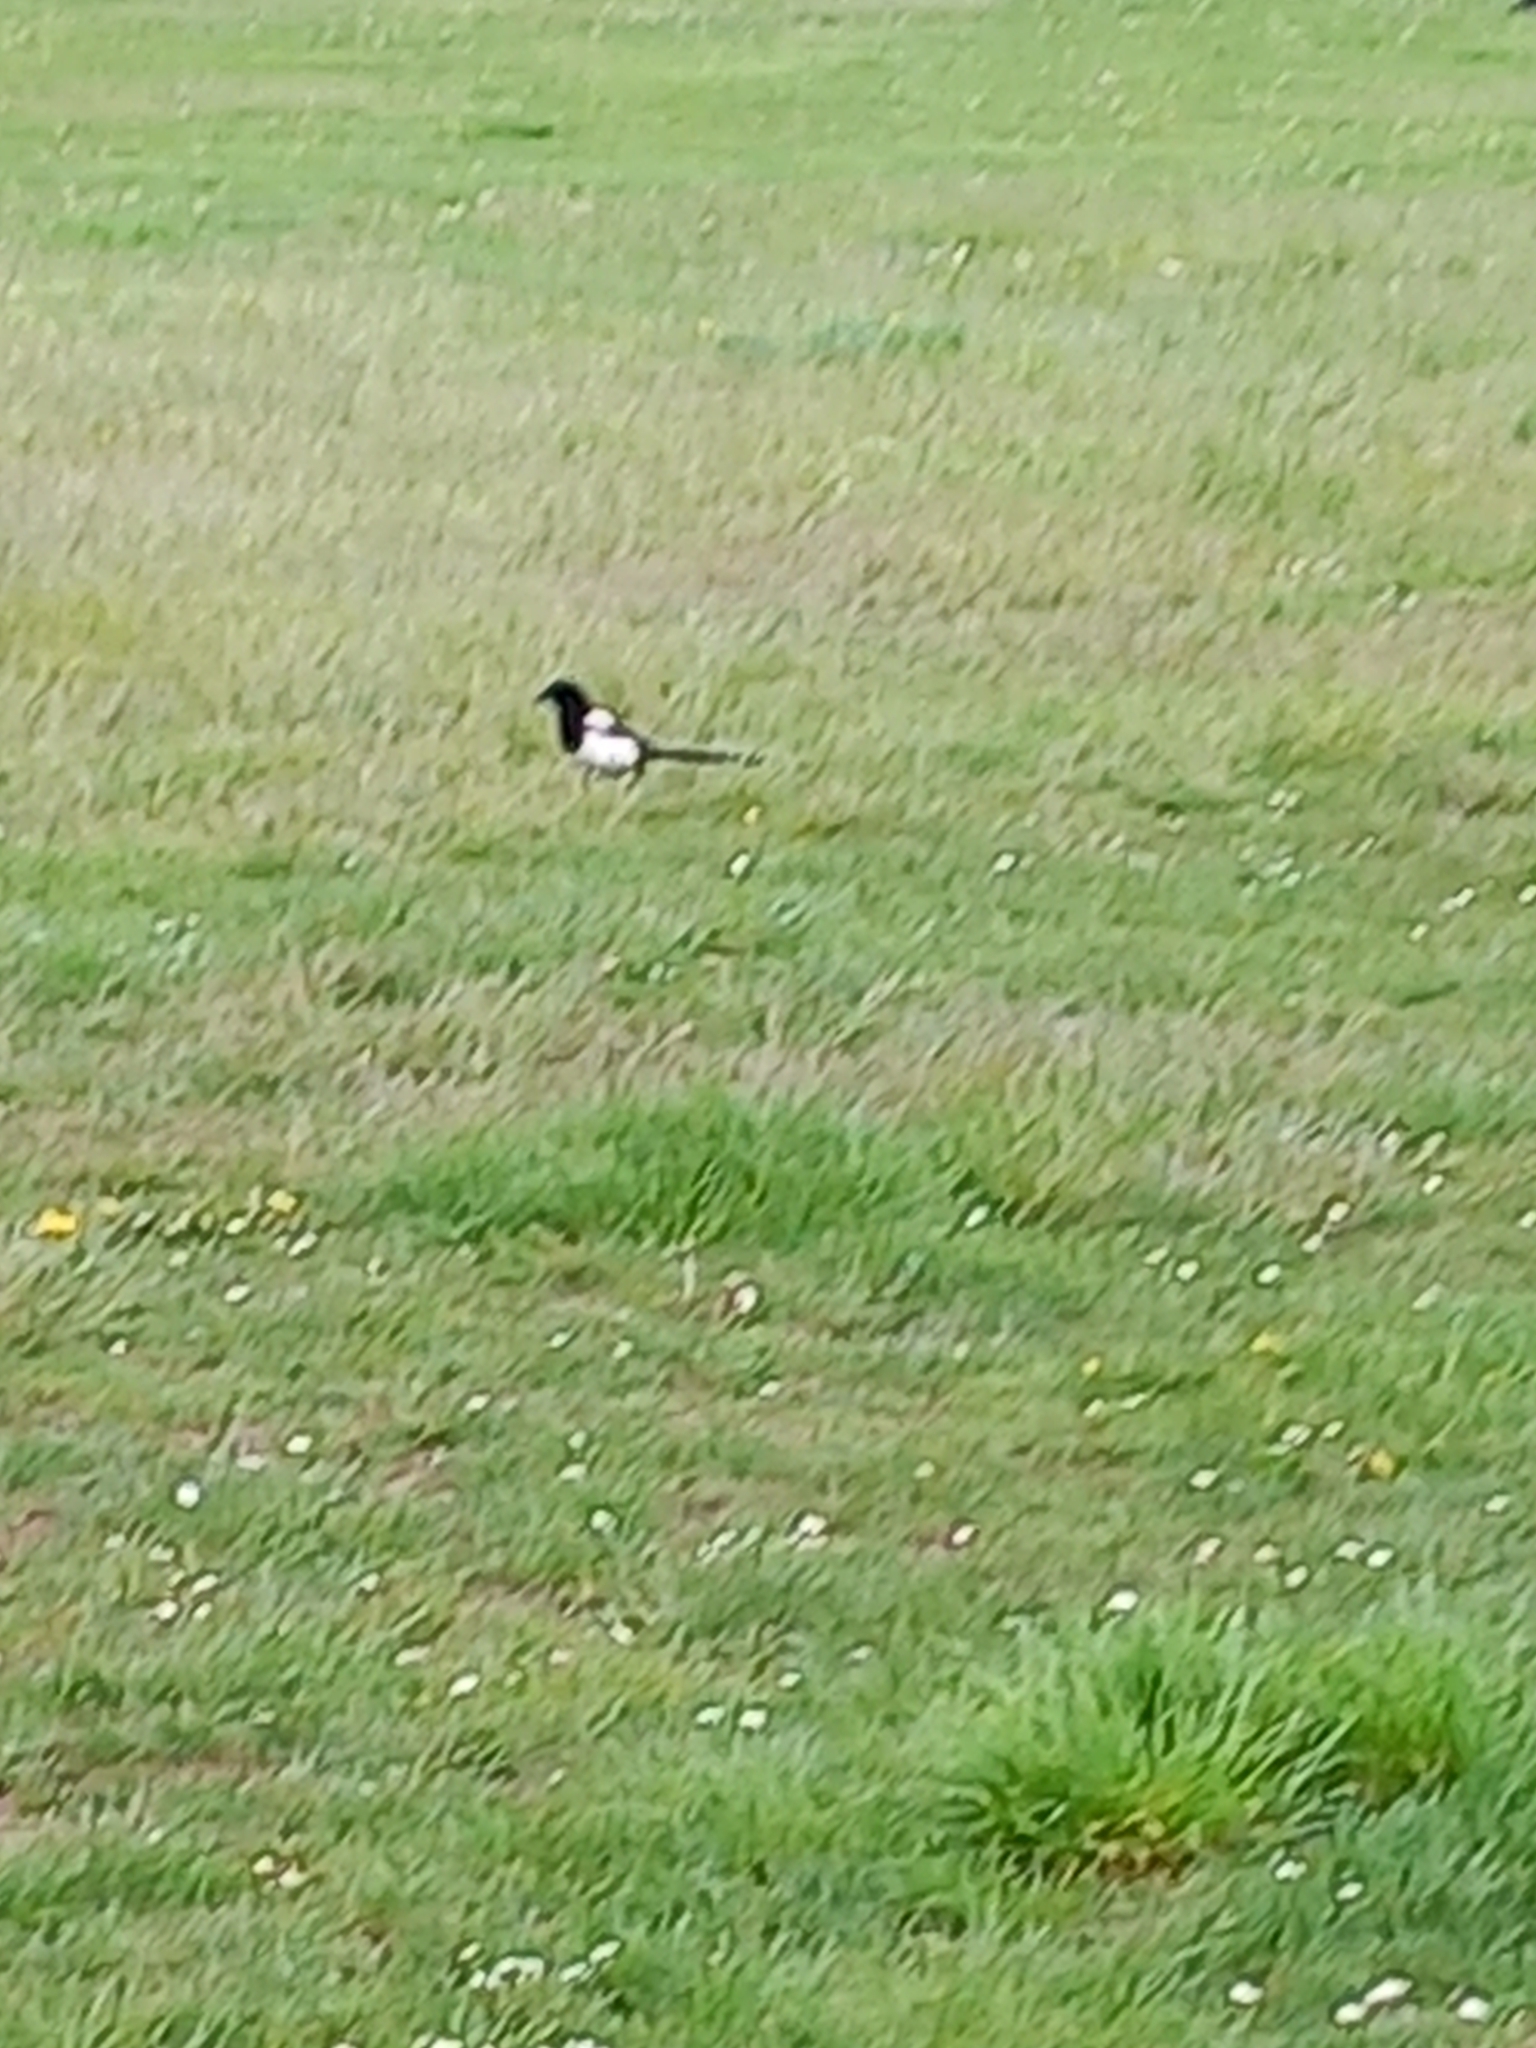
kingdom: Animalia
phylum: Chordata
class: Aves
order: Passeriformes
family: Corvidae
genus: Pica
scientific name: Pica pica
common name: Eurasian magpie
